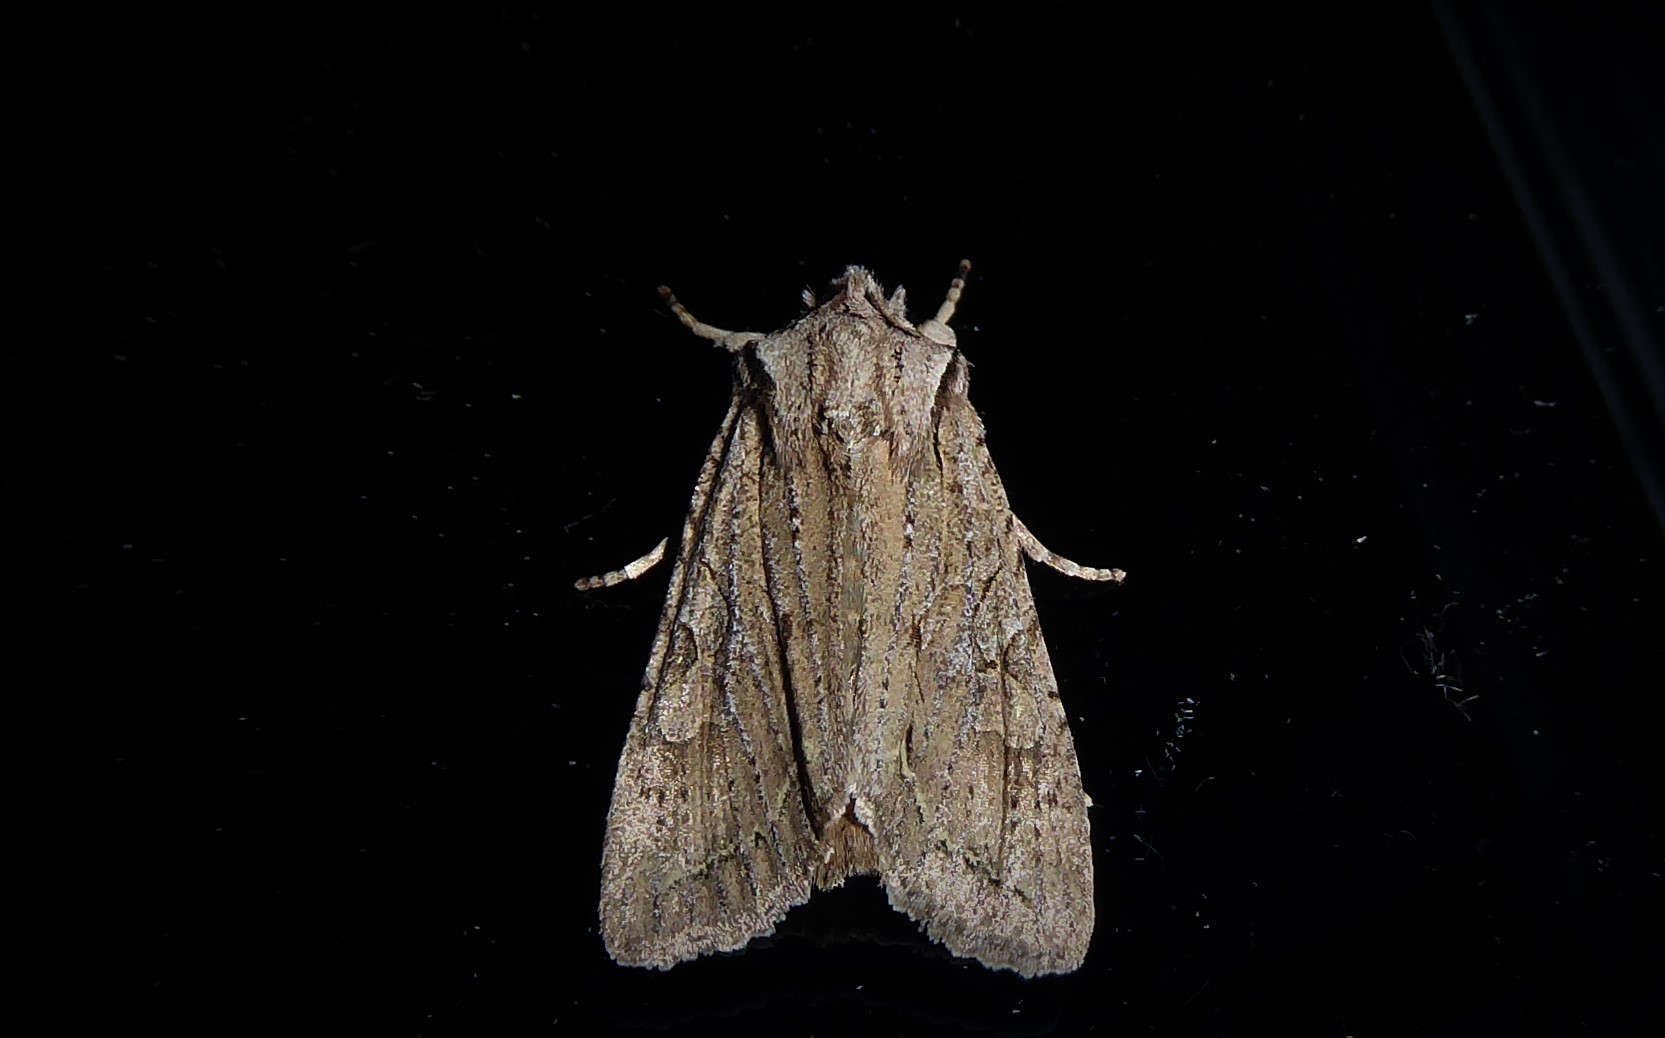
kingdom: Animalia
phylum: Arthropoda
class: Insecta
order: Lepidoptera
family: Noctuidae
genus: Ichneutica
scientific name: Ichneutica
